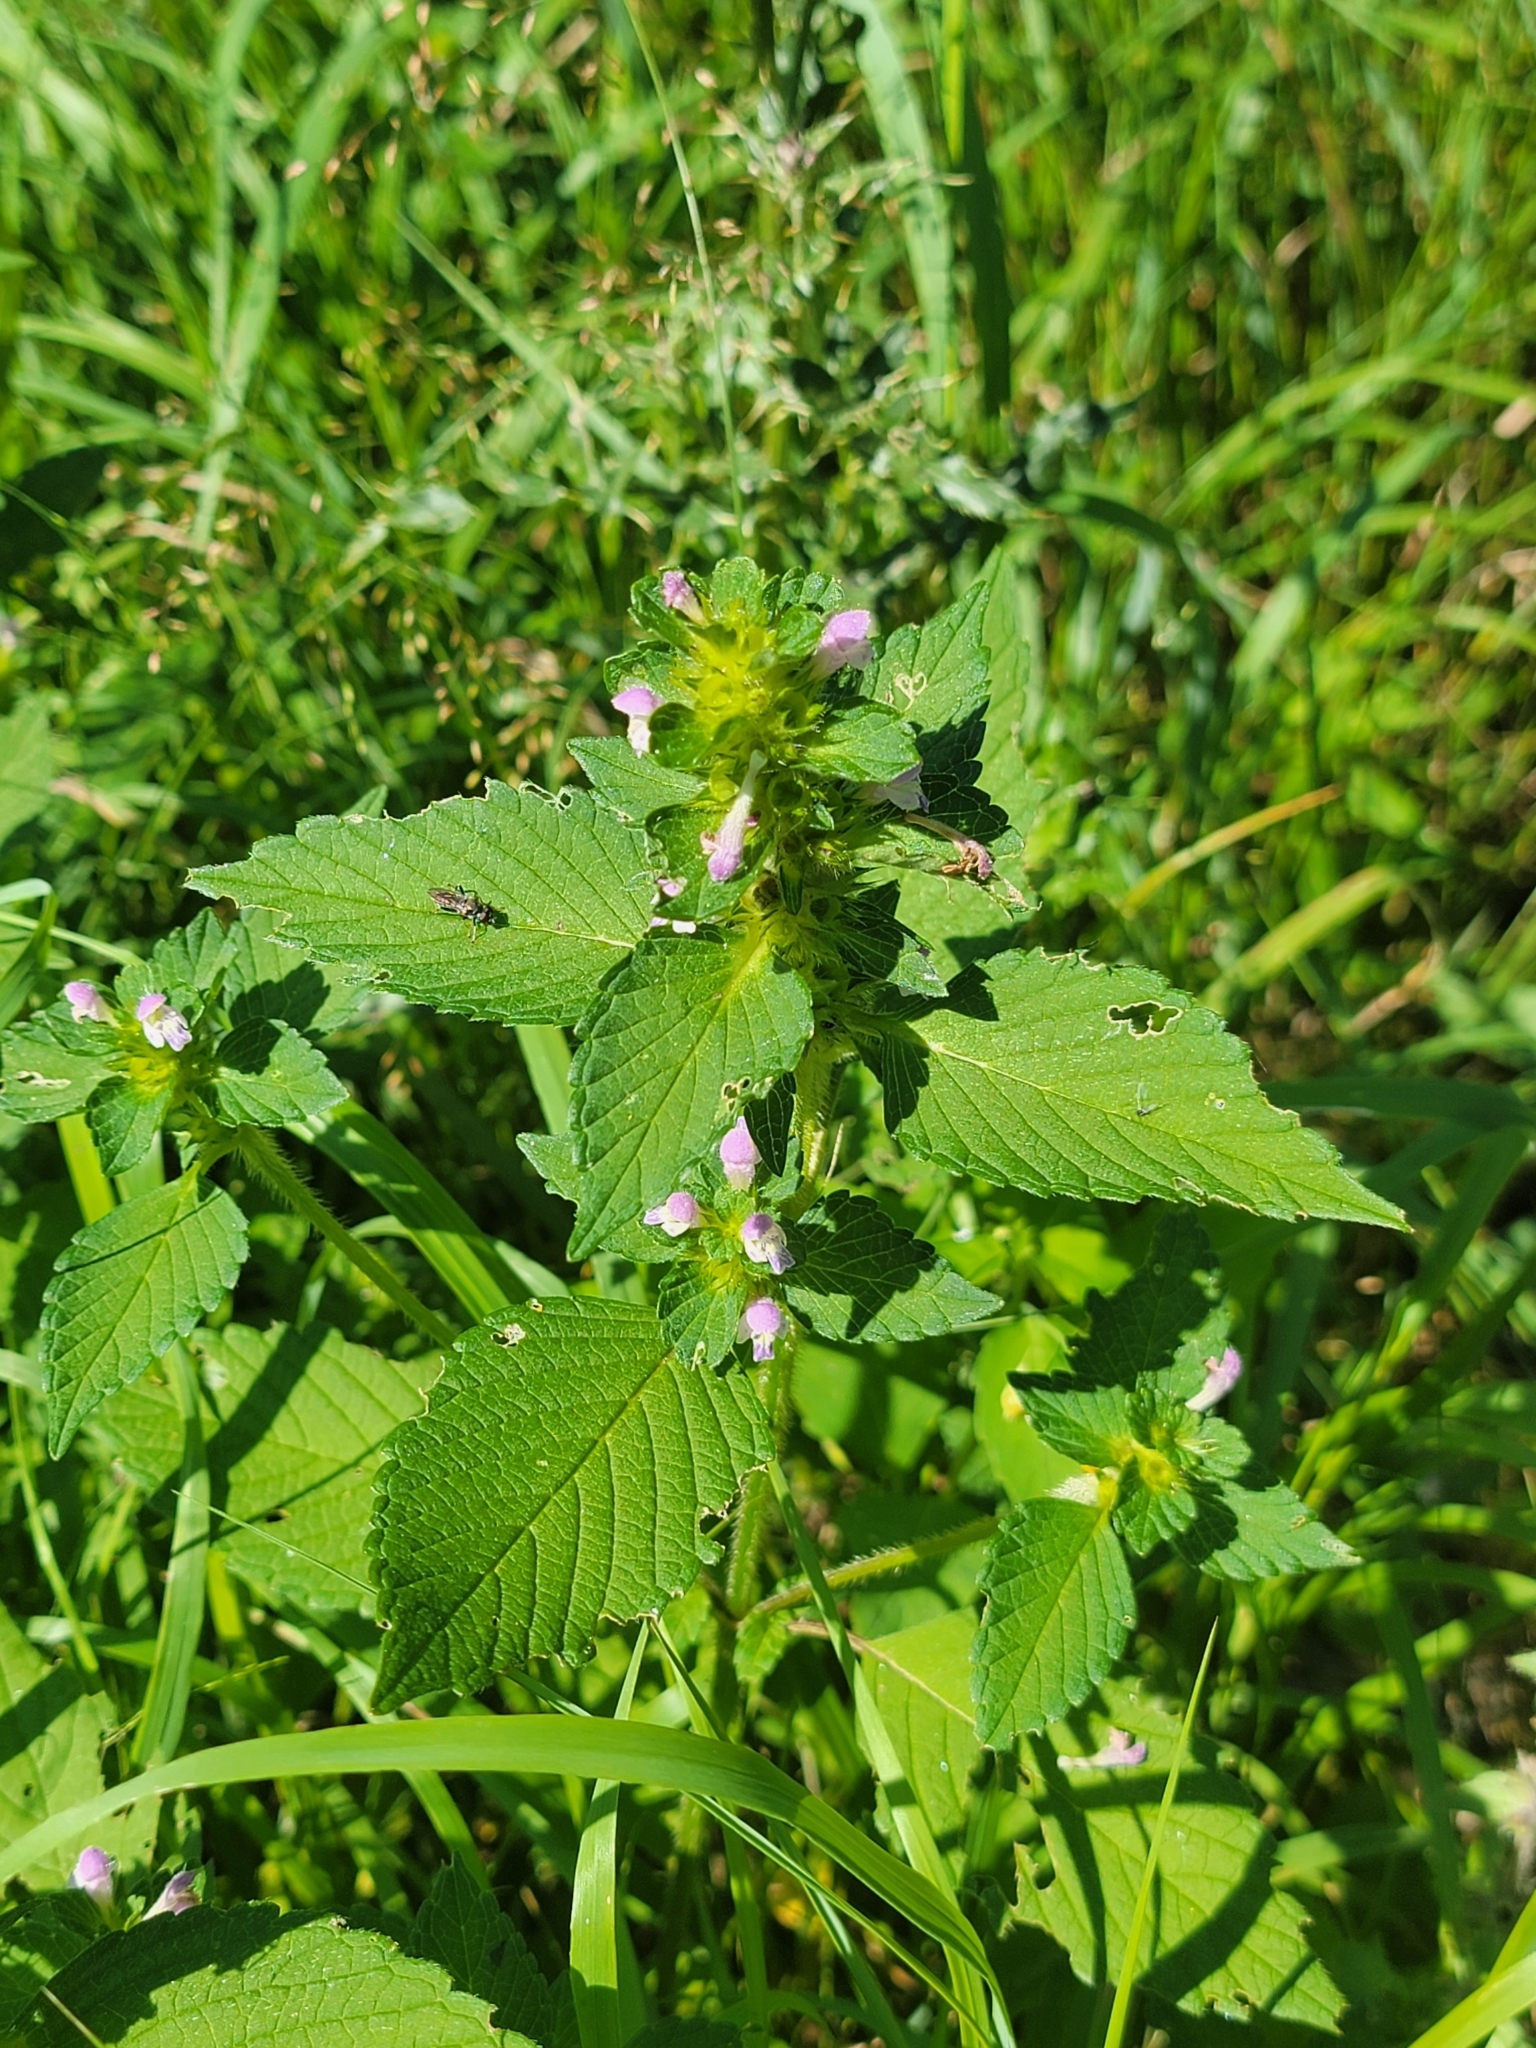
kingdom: Plantae
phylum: Tracheophyta
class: Magnoliopsida
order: Lamiales
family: Lamiaceae
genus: Galeopsis
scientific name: Galeopsis bifida
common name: Bifid hemp-nettle
